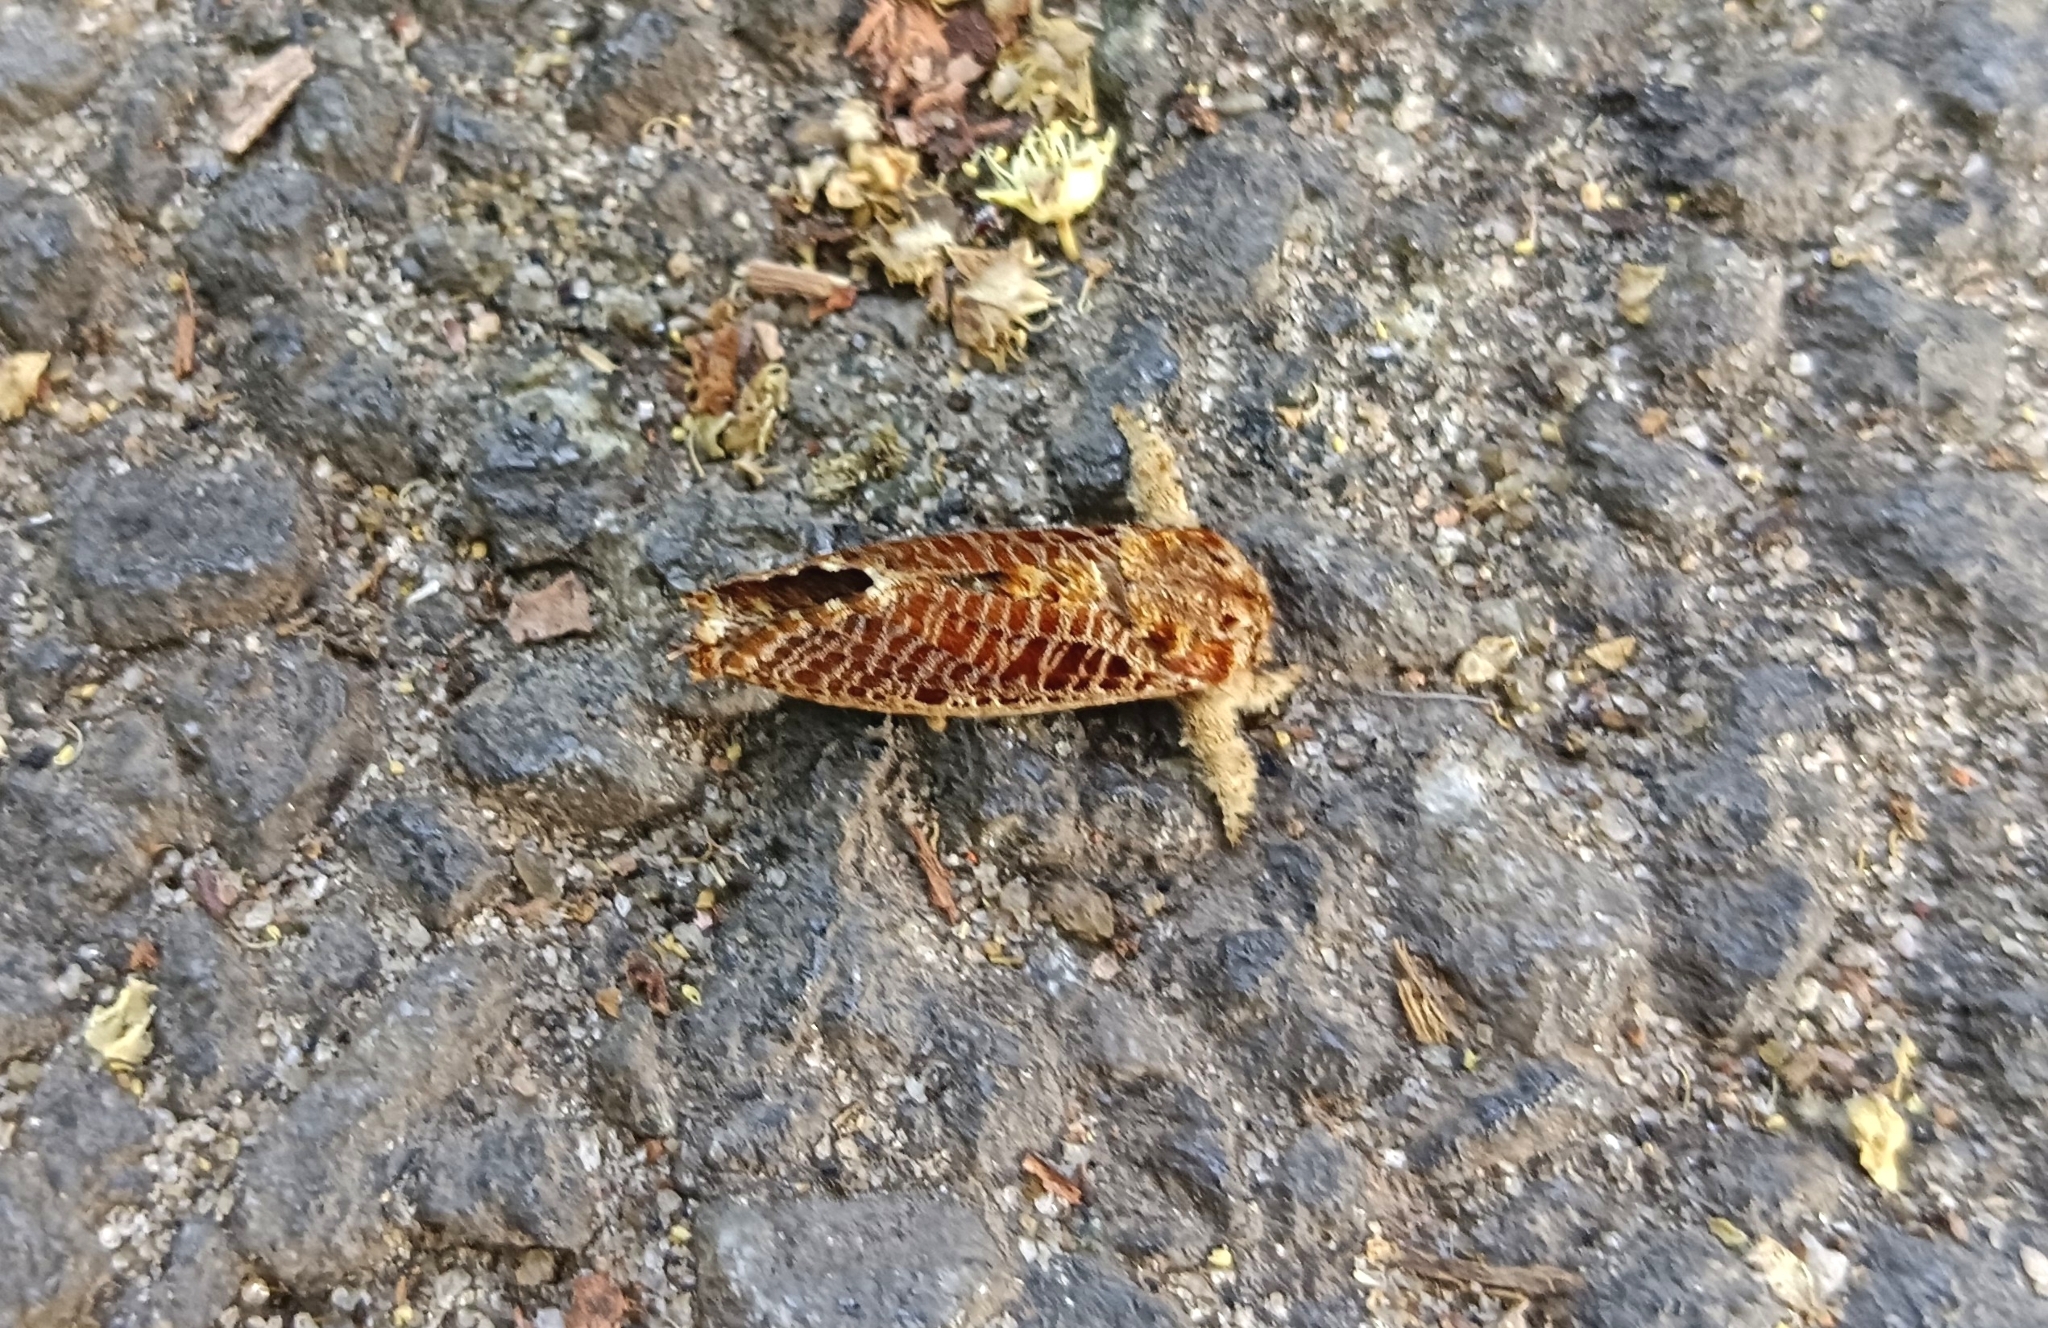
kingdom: Animalia
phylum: Arthropoda
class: Insecta
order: Lepidoptera
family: Metarbelidae
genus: Indarbela
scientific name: Indarbela quadrinotata
